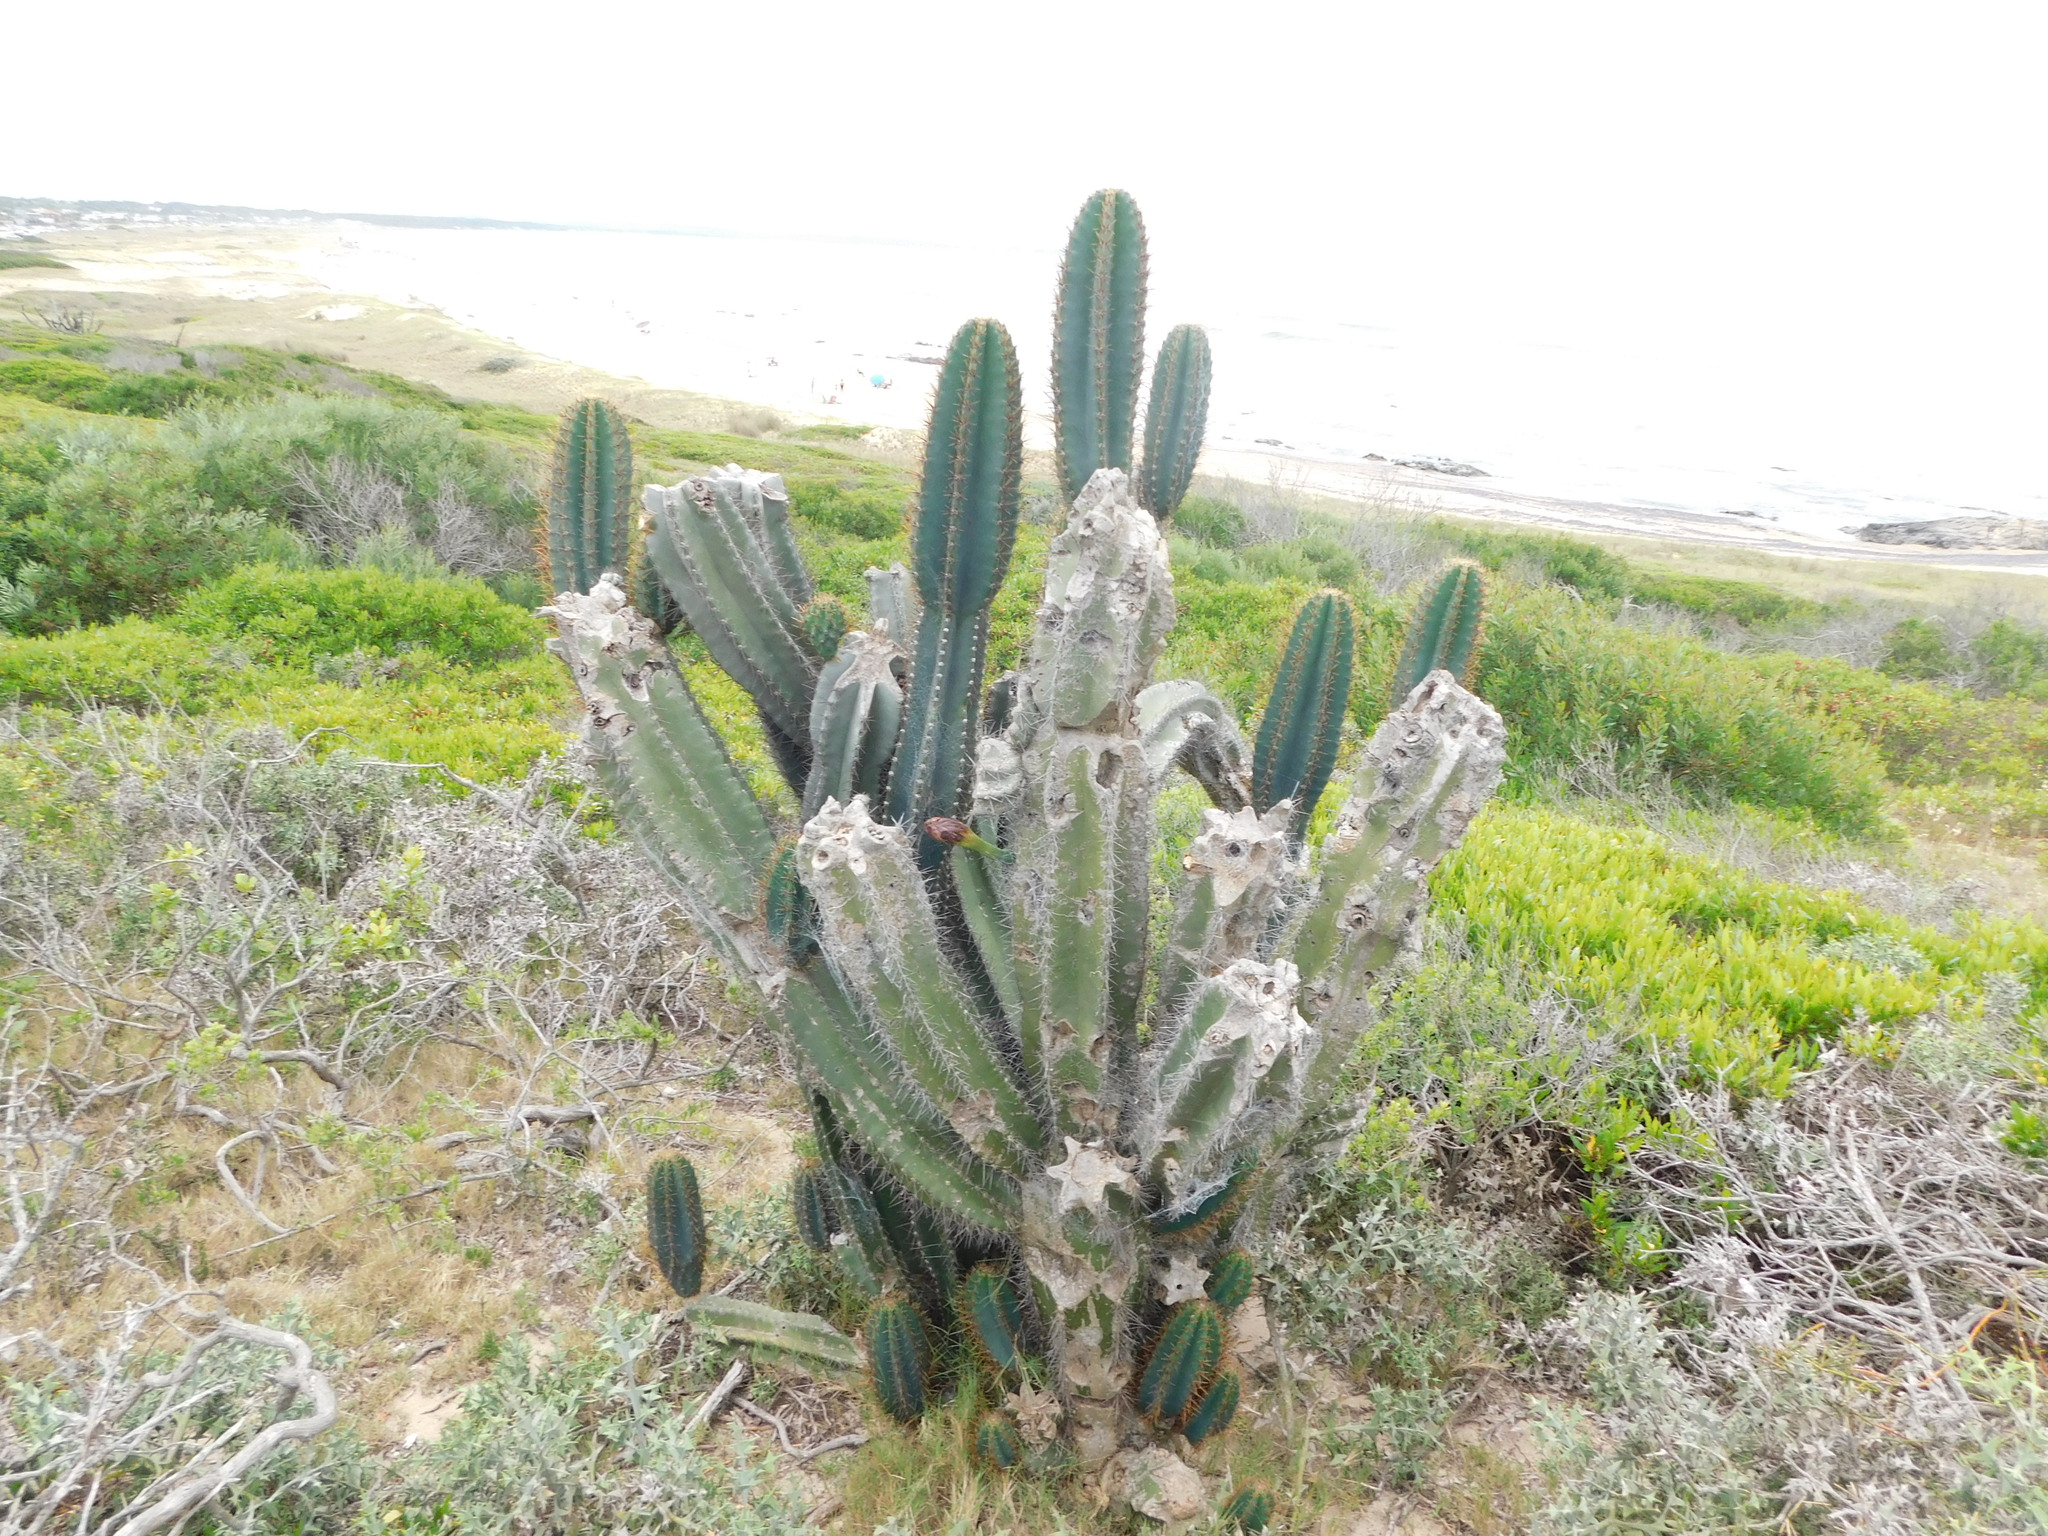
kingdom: Plantae
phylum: Tracheophyta
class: Magnoliopsida
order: Caryophyllales
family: Cactaceae
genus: Cereus
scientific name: Cereus hildmannianus
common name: Hedge cactus
